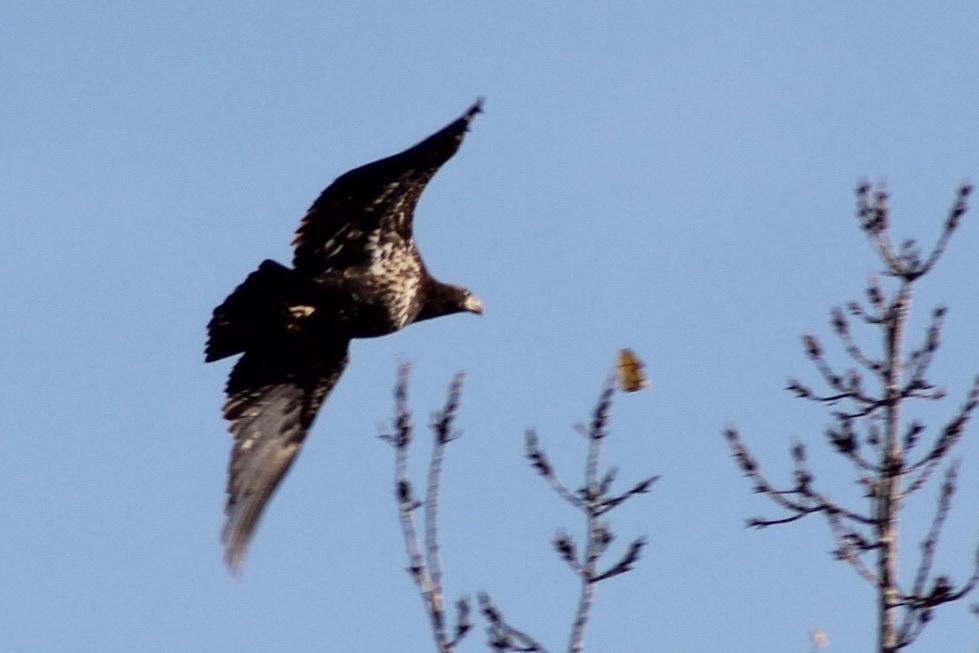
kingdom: Animalia
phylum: Chordata
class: Aves
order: Accipitriformes
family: Accipitridae
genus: Haliaeetus
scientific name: Haliaeetus leucocephalus
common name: Bald eagle
